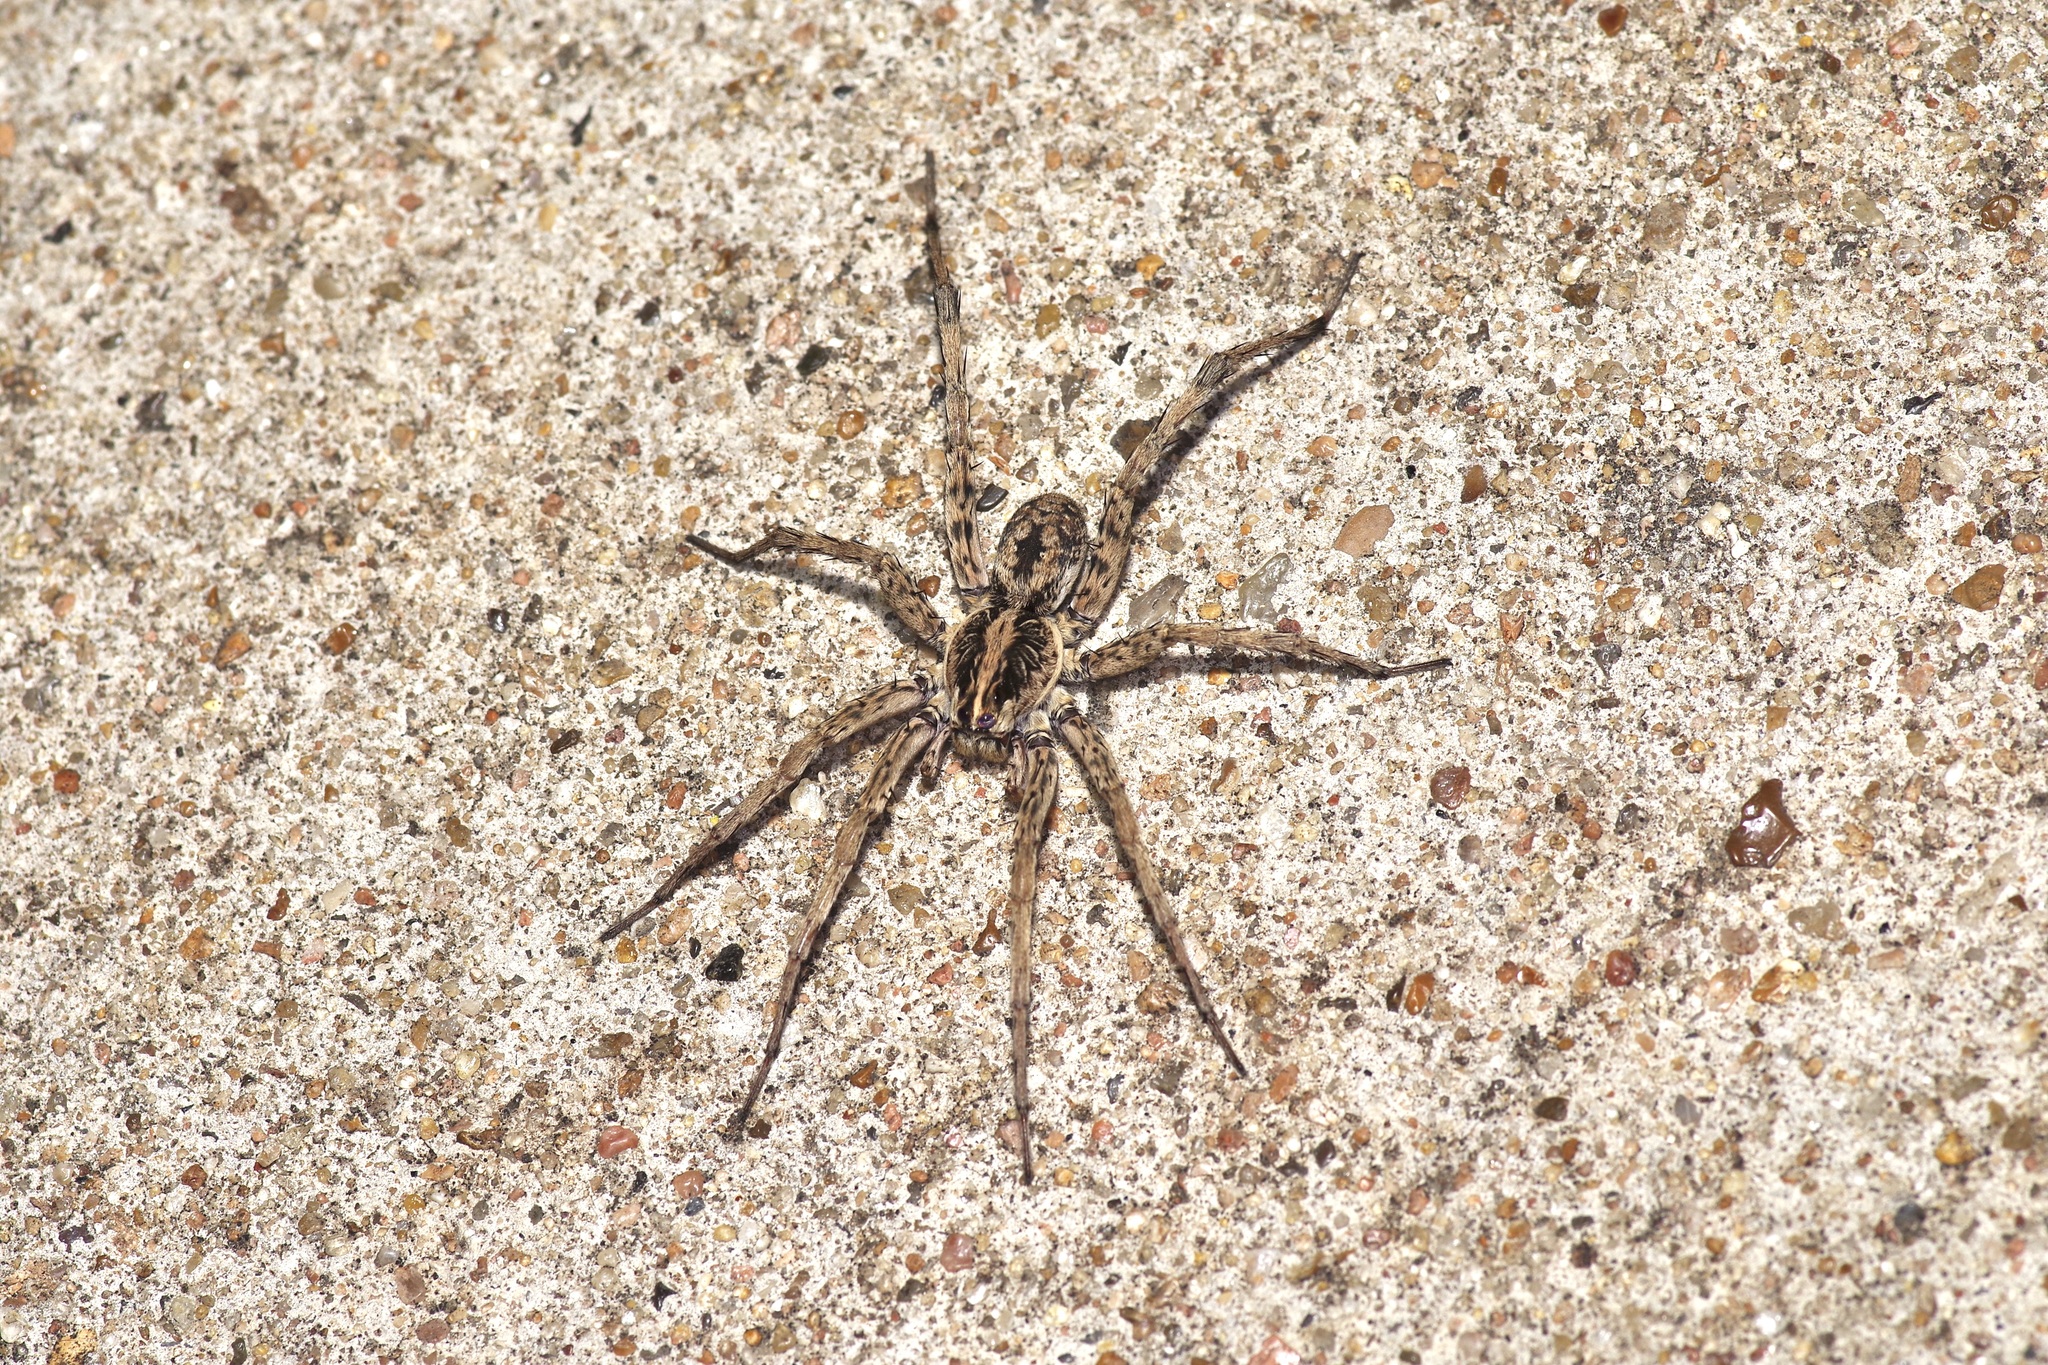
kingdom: Animalia
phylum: Arthropoda
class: Arachnida
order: Araneae
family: Lycosidae
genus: Hogna
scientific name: Hogna antelucana
